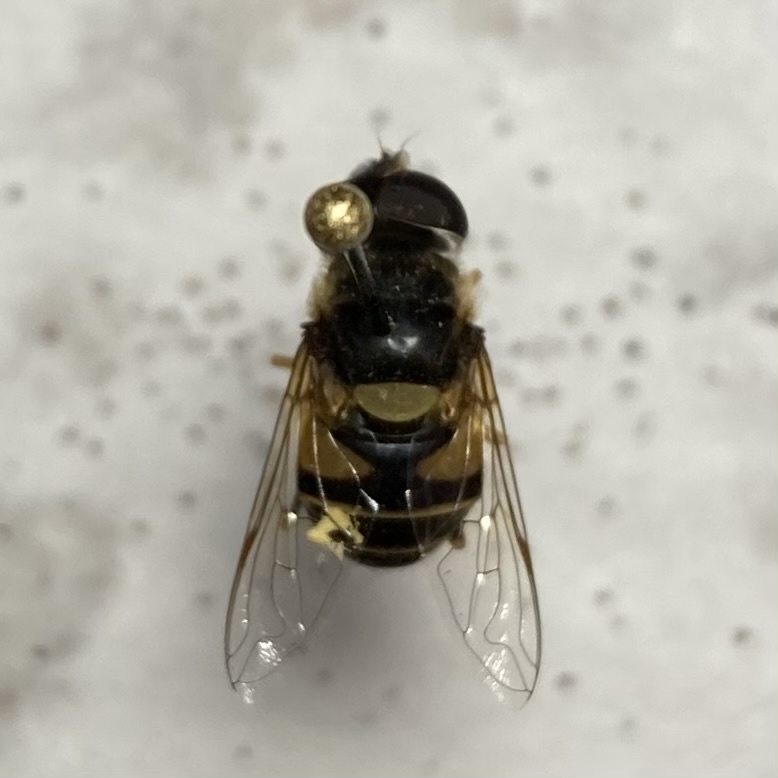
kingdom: Animalia
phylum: Arthropoda
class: Insecta
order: Diptera
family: Syrphidae
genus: Eristalis
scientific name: Eristalis transversa
